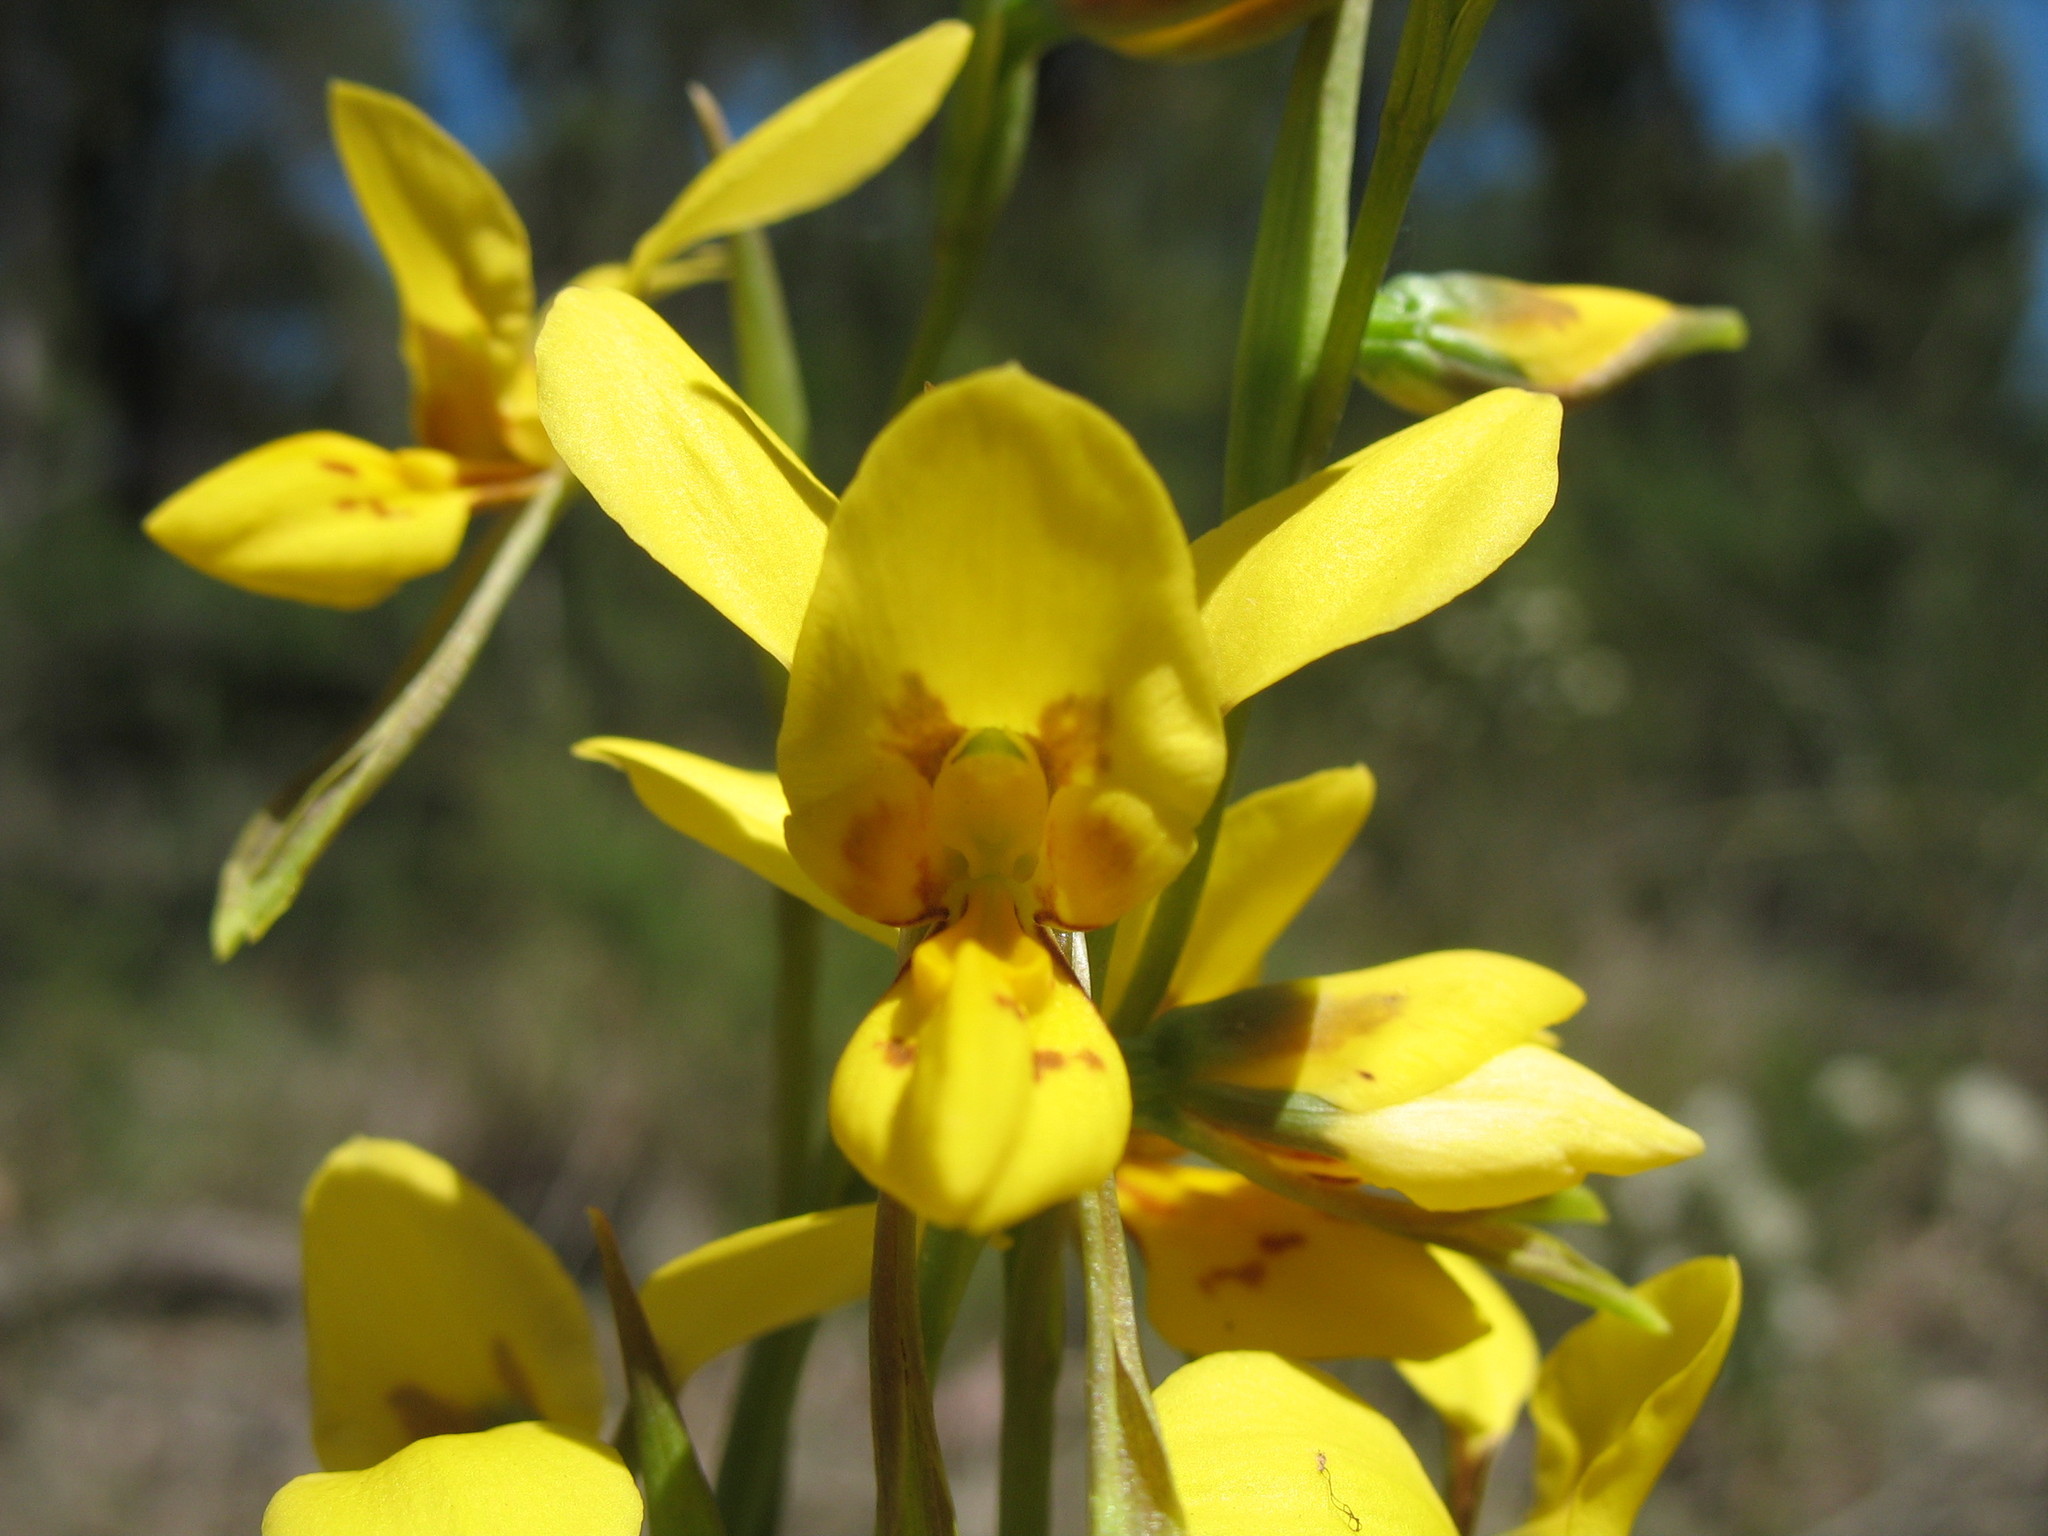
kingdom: Plantae
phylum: Tracheophyta
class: Liliopsida
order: Asparagales
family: Orchidaceae
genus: Diuris
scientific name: Diuris aurea
